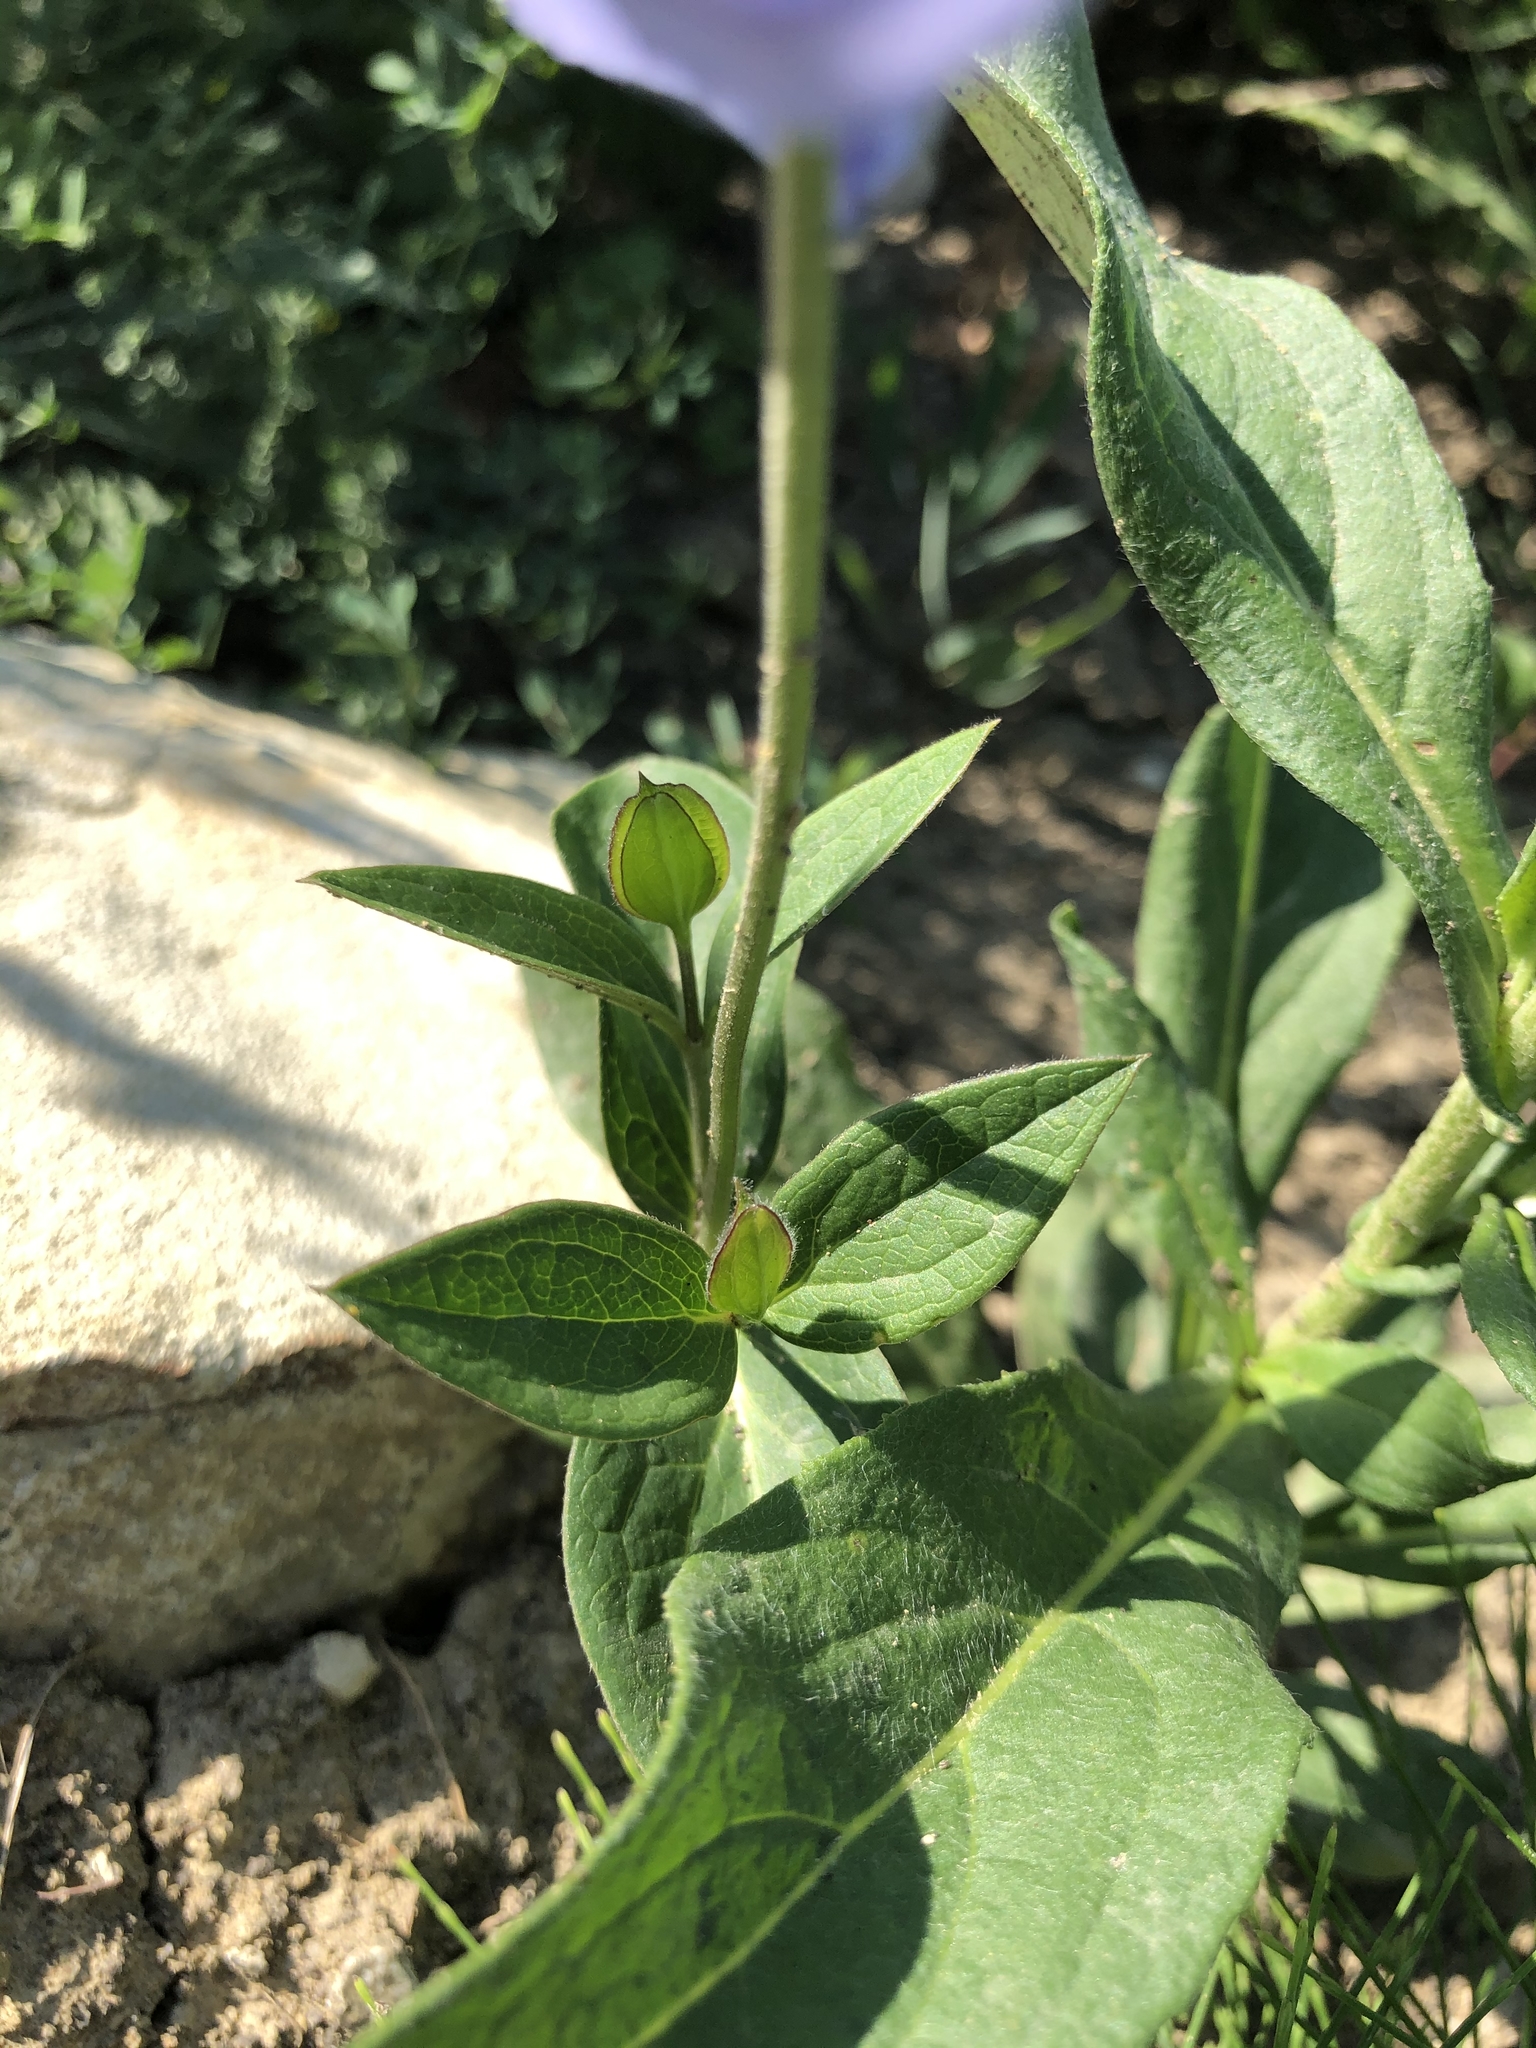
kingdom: Plantae
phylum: Tracheophyta
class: Magnoliopsida
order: Ranunculales
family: Ranunculaceae
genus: Clematis
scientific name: Clematis integrifolia
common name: Solitary clematis
